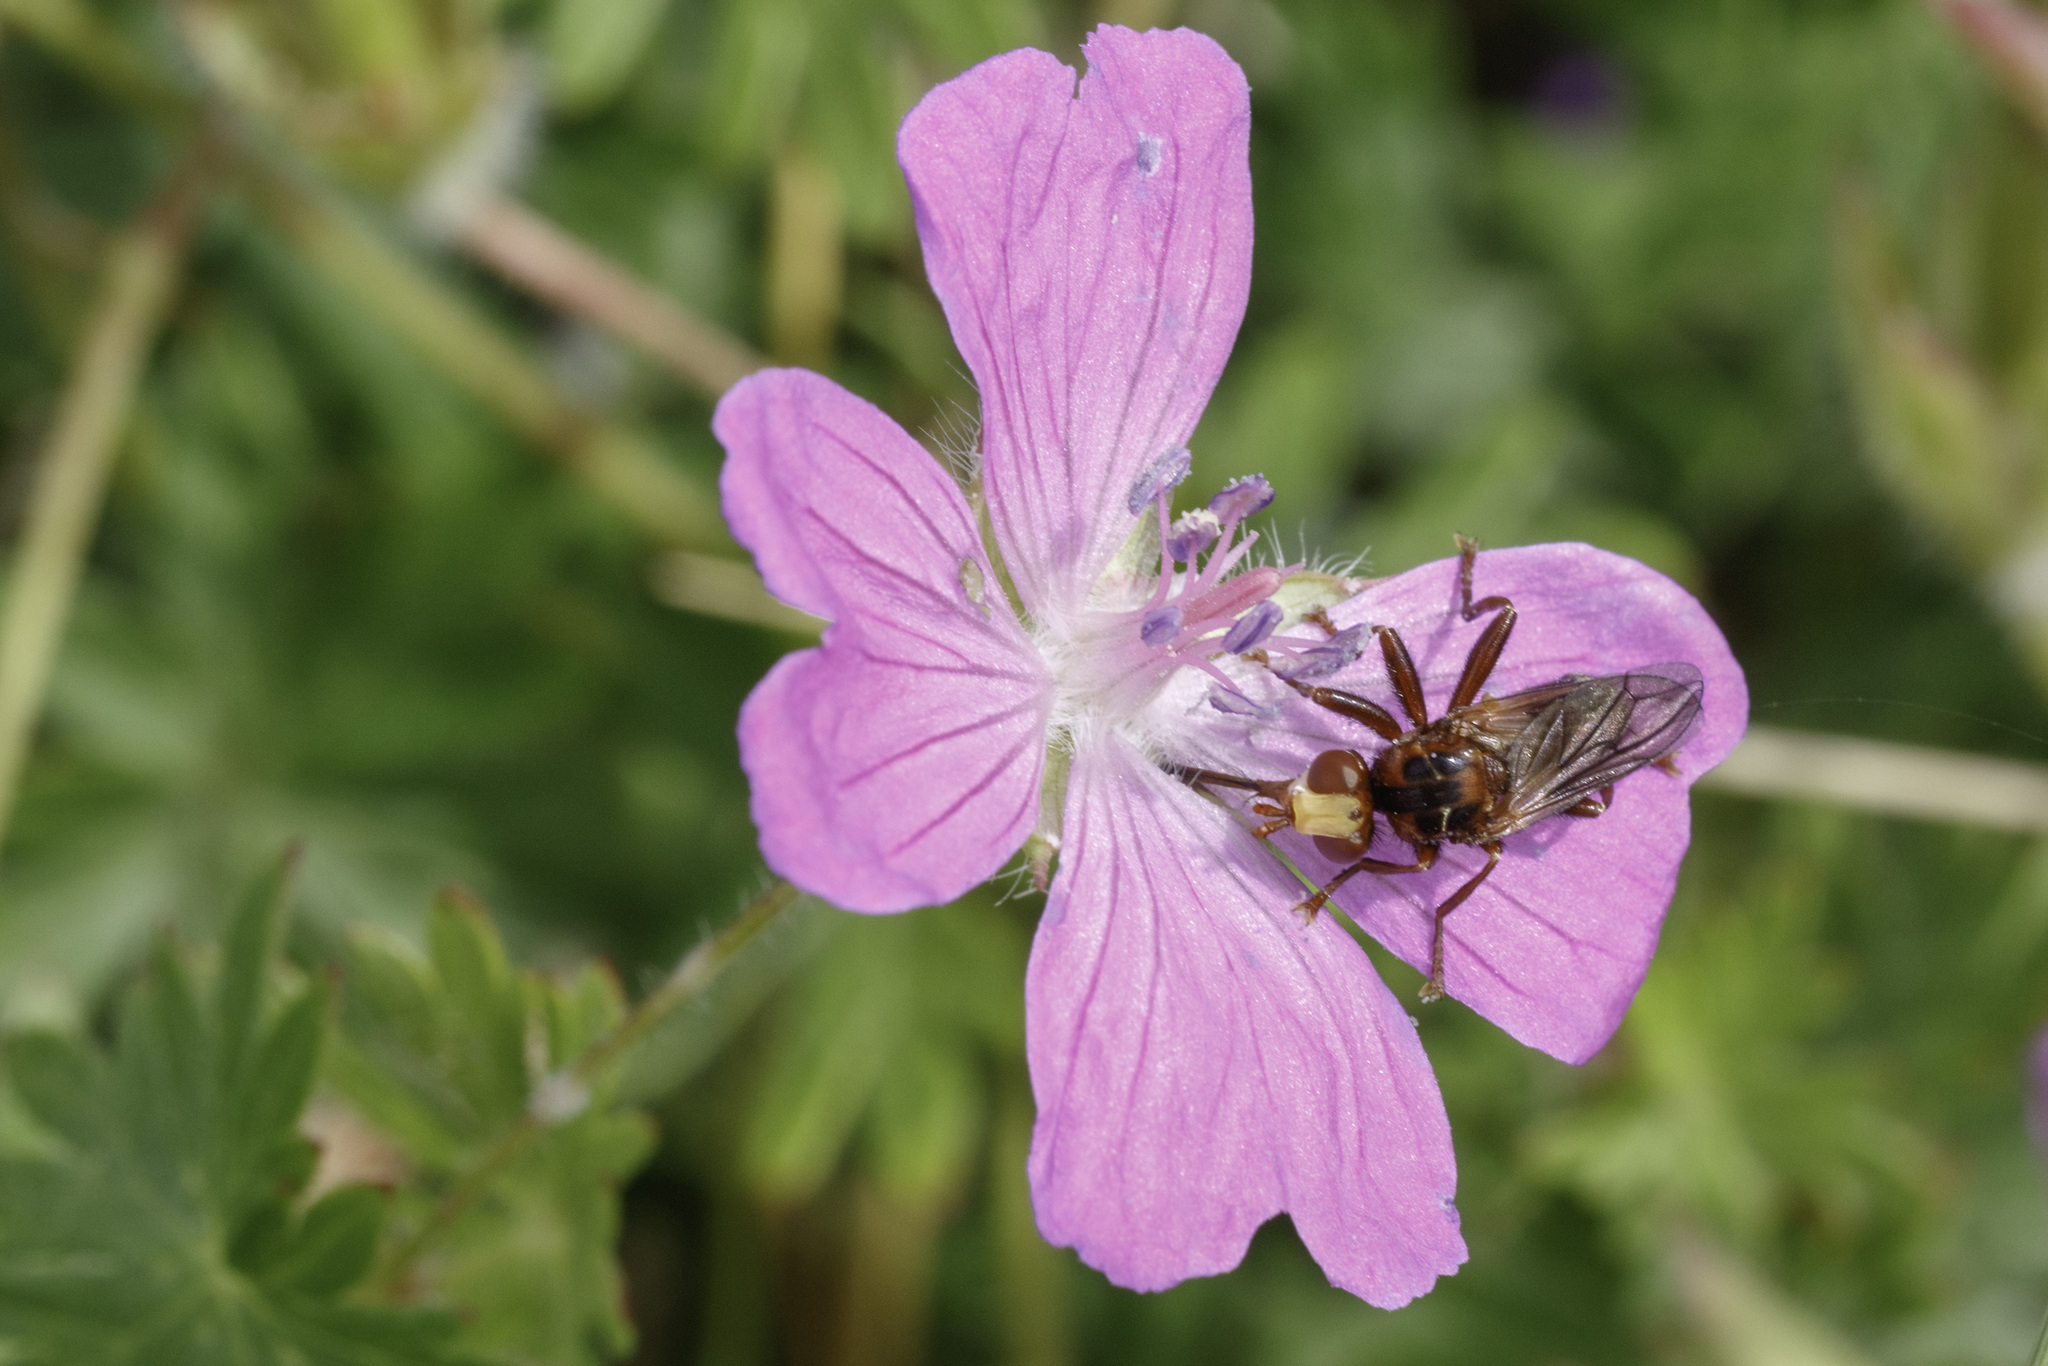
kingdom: Animalia
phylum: Arthropoda
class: Insecta
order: Diptera
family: Conopidae
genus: Sicus
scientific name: Sicus ferrugineus
